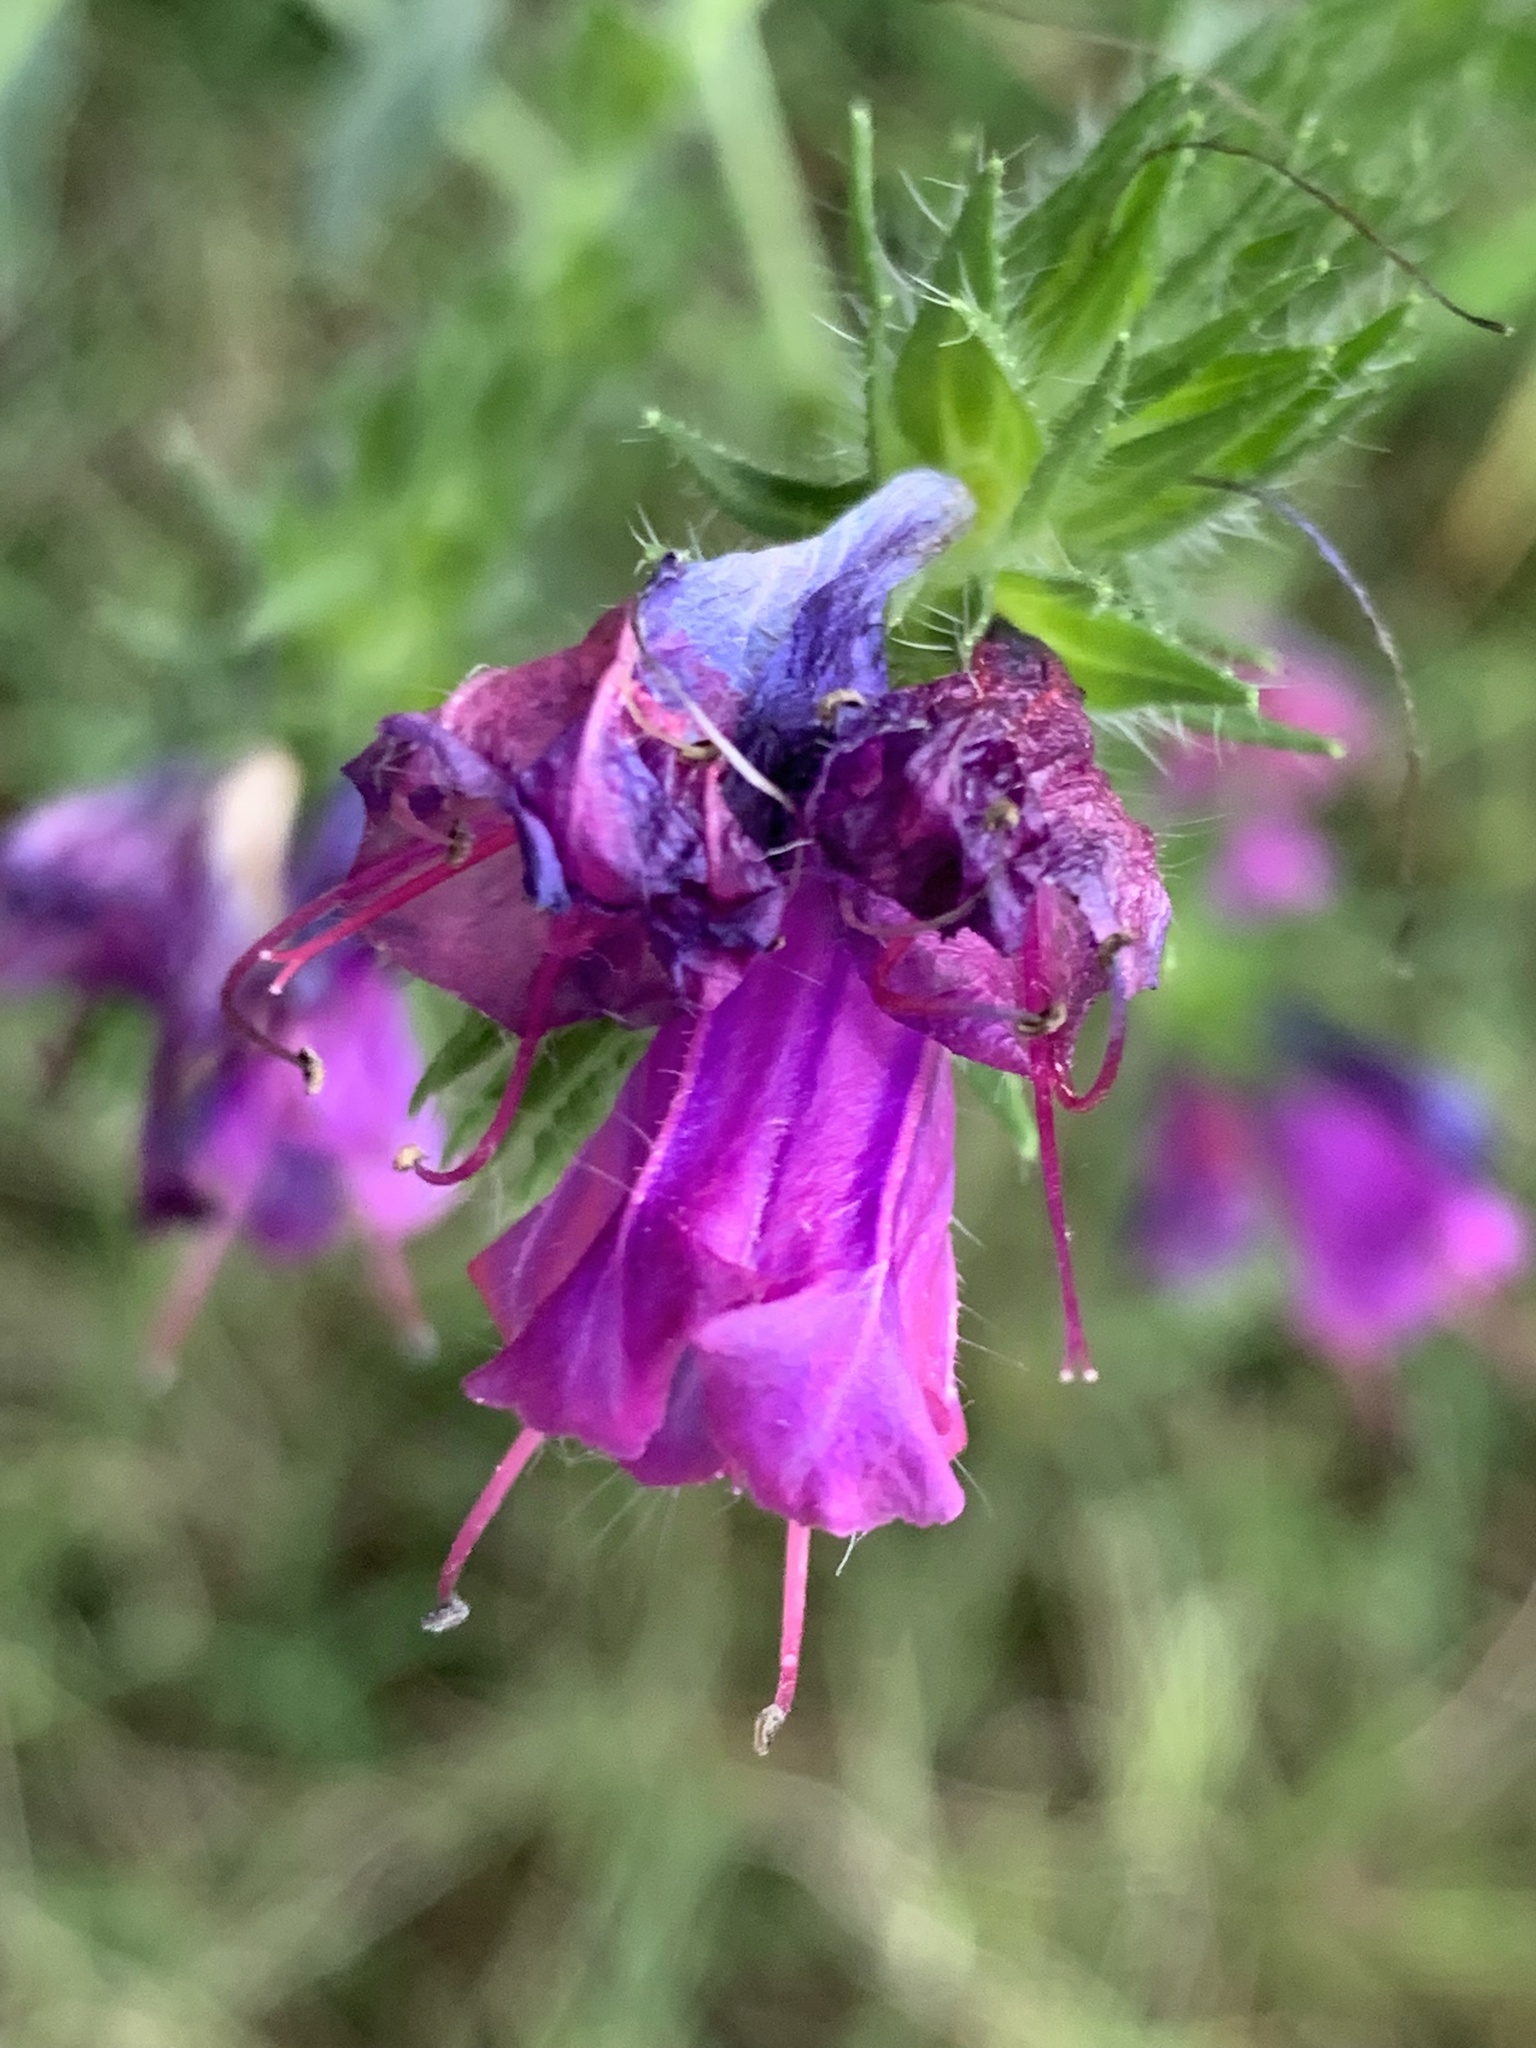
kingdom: Plantae
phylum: Tracheophyta
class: Magnoliopsida
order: Boraginales
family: Boraginaceae
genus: Echium
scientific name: Echium plantagineum
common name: Purple viper's-bugloss
